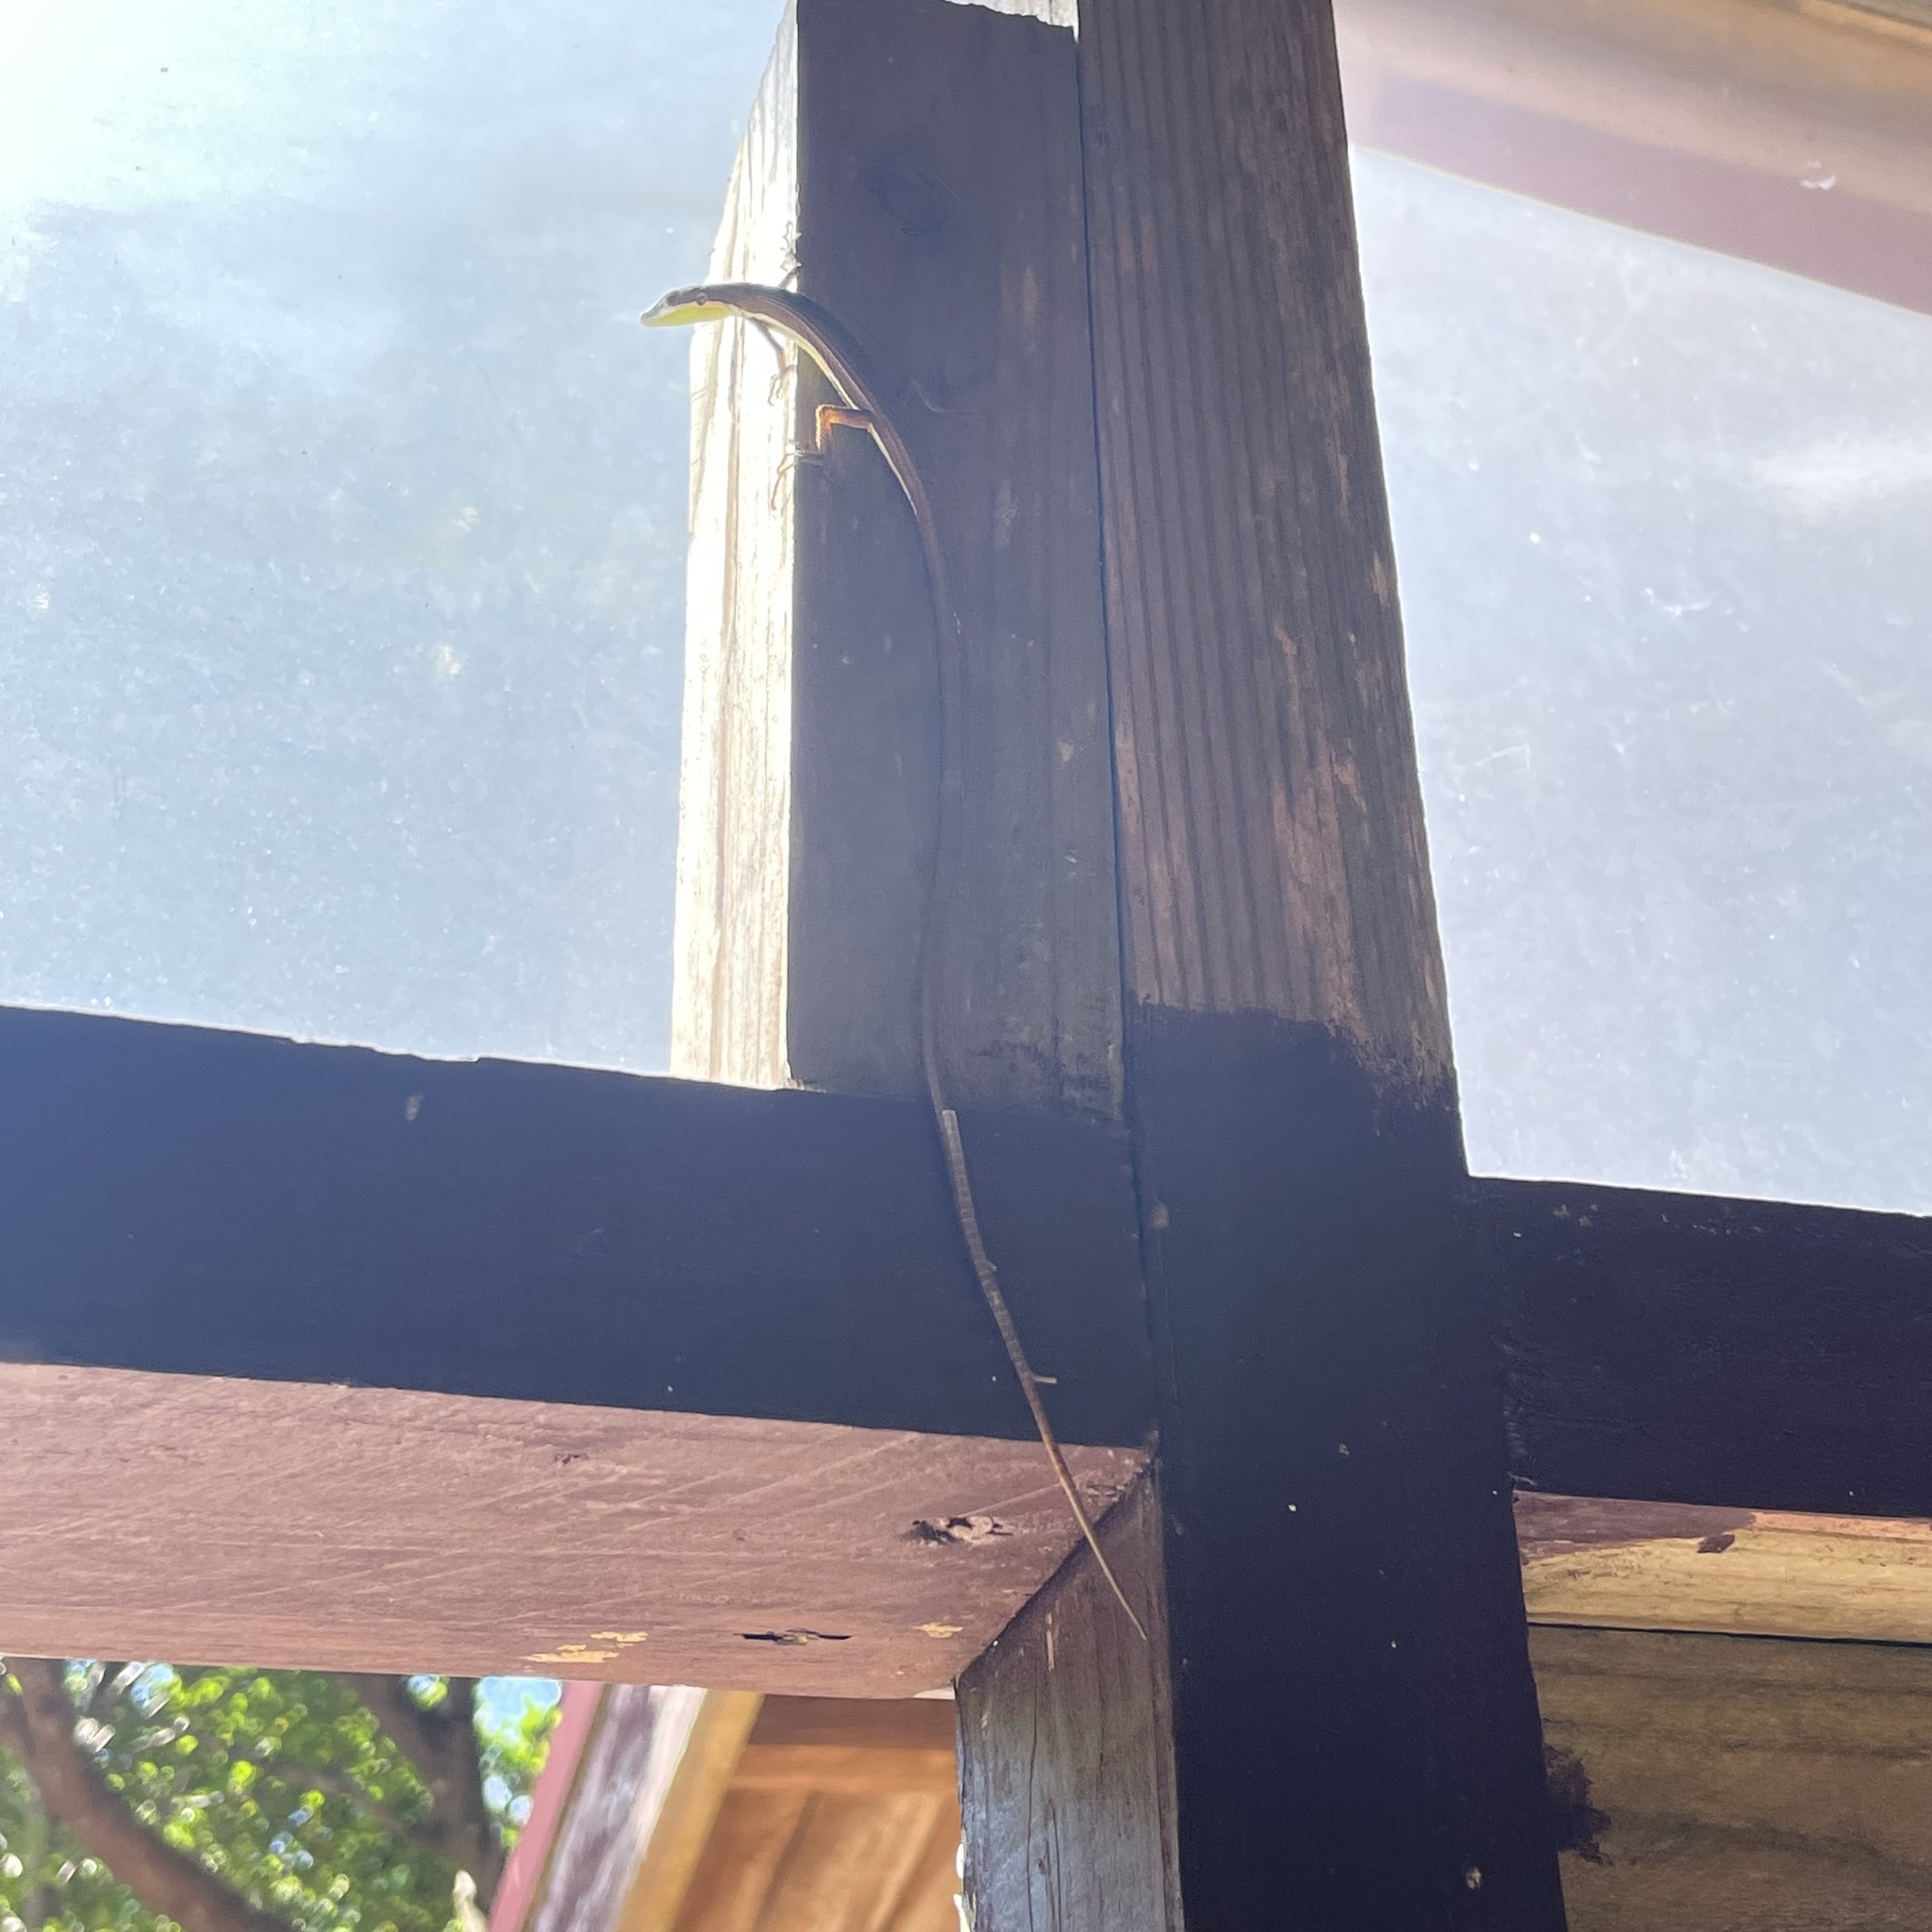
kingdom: Animalia
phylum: Chordata
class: Squamata
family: Lacertidae
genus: Takydromus
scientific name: Takydromus smaragdinus
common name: Green grass lizard
